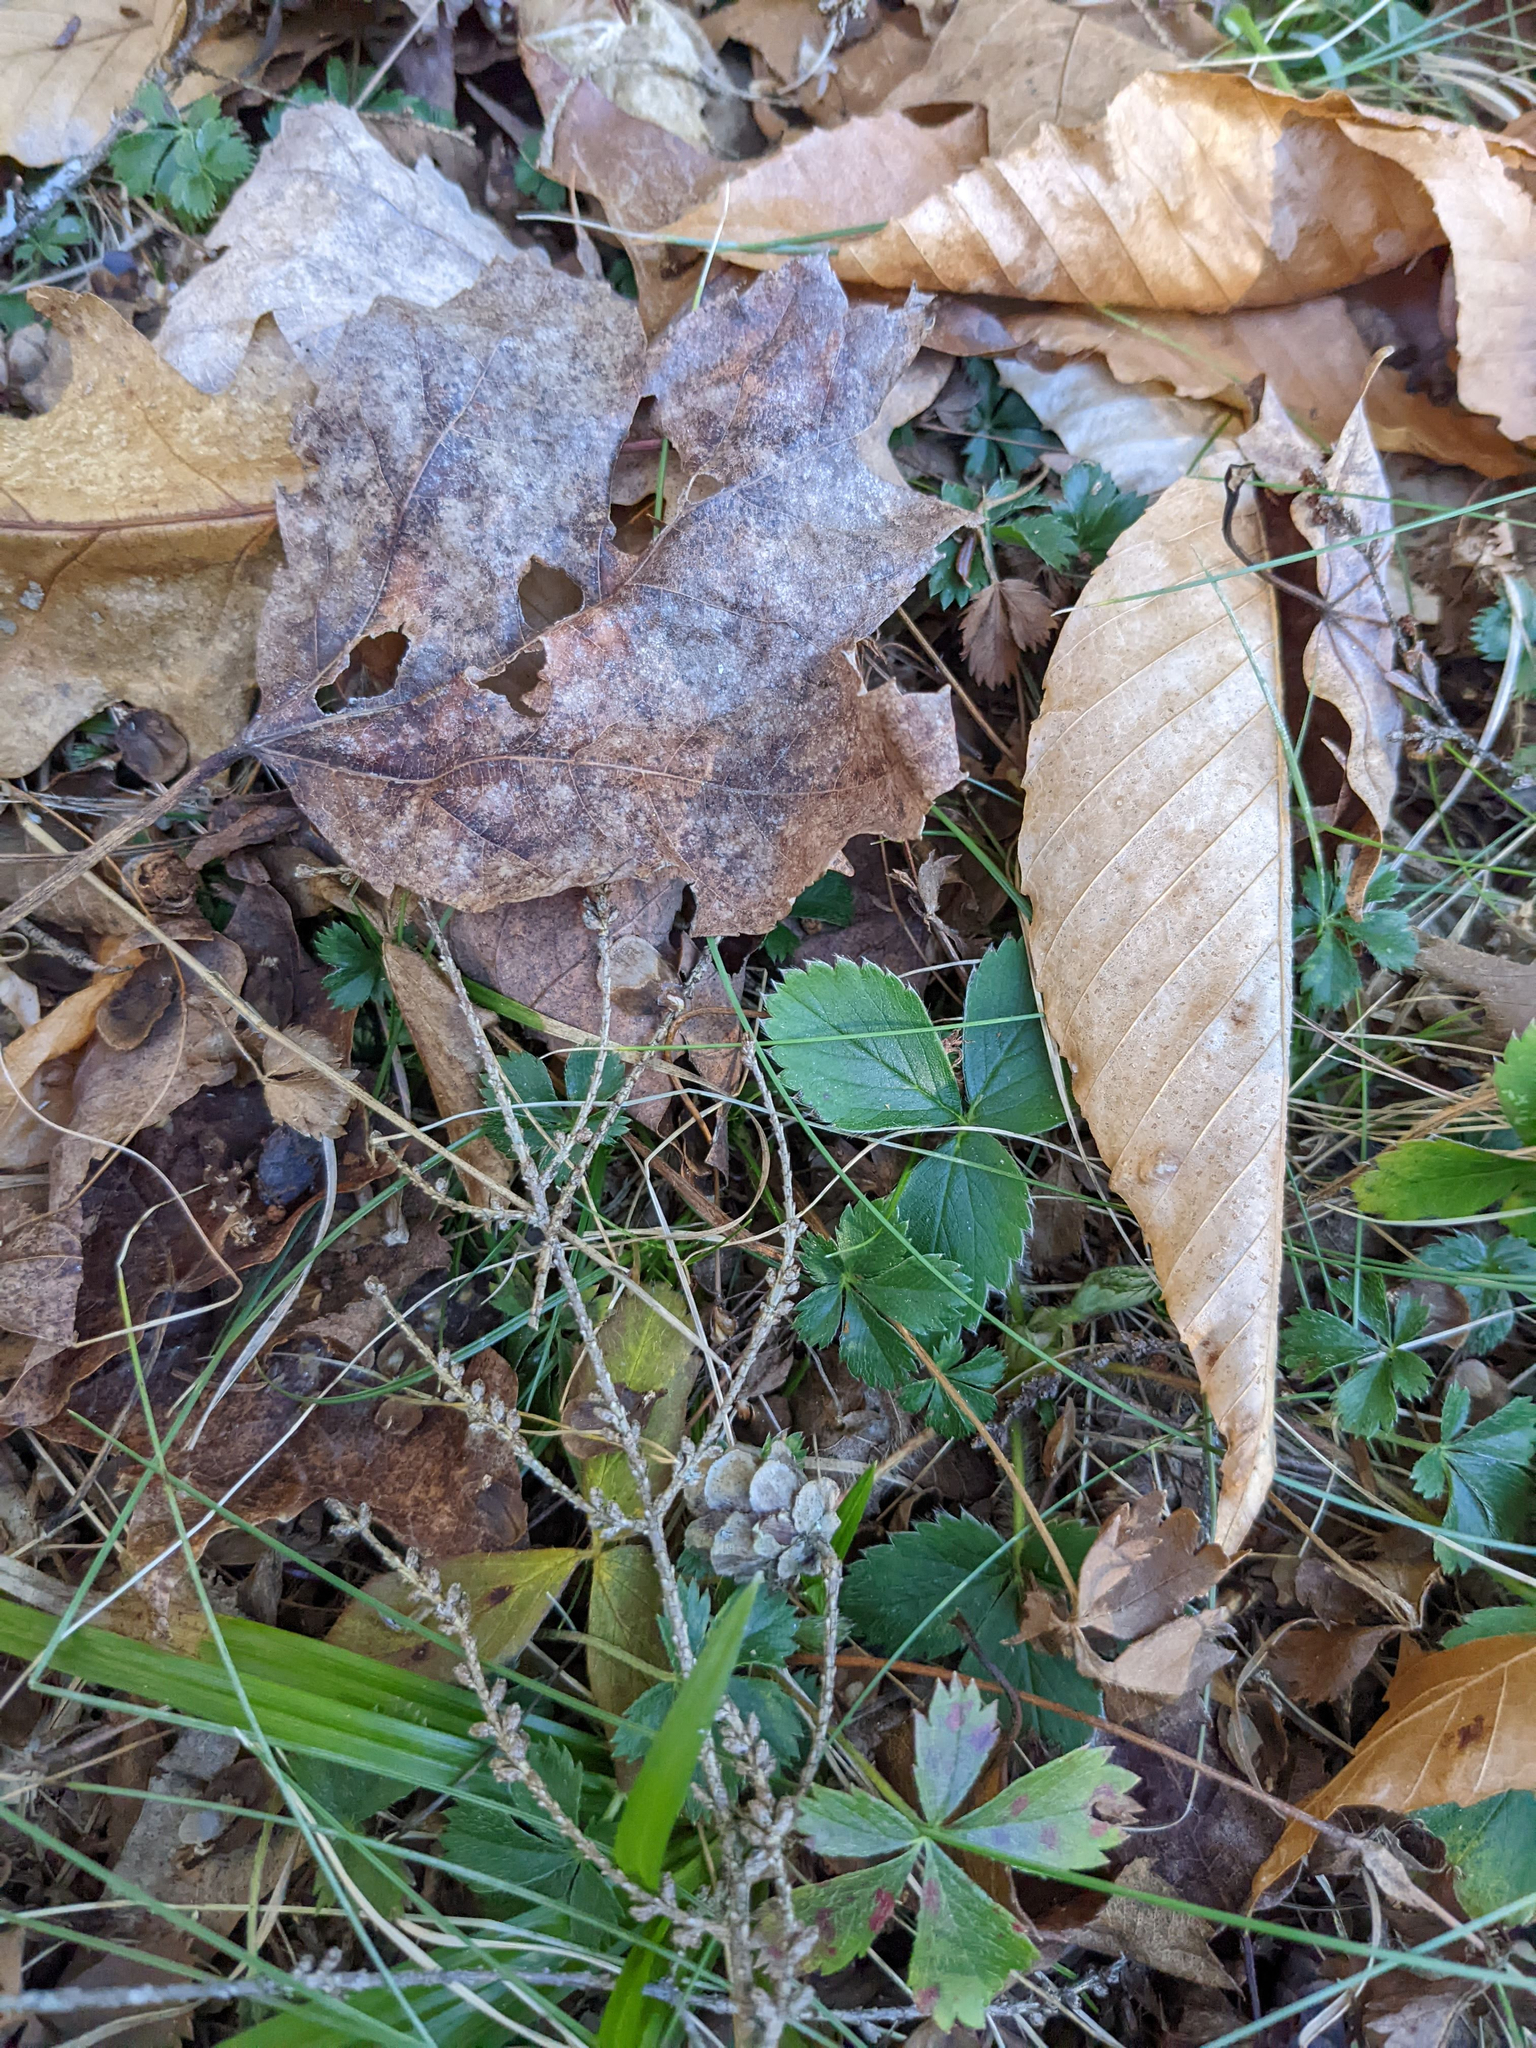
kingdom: Plantae
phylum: Tracheophyta
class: Magnoliopsida
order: Fagales
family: Fagaceae
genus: Fagus
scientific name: Fagus grandifolia
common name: American beech
